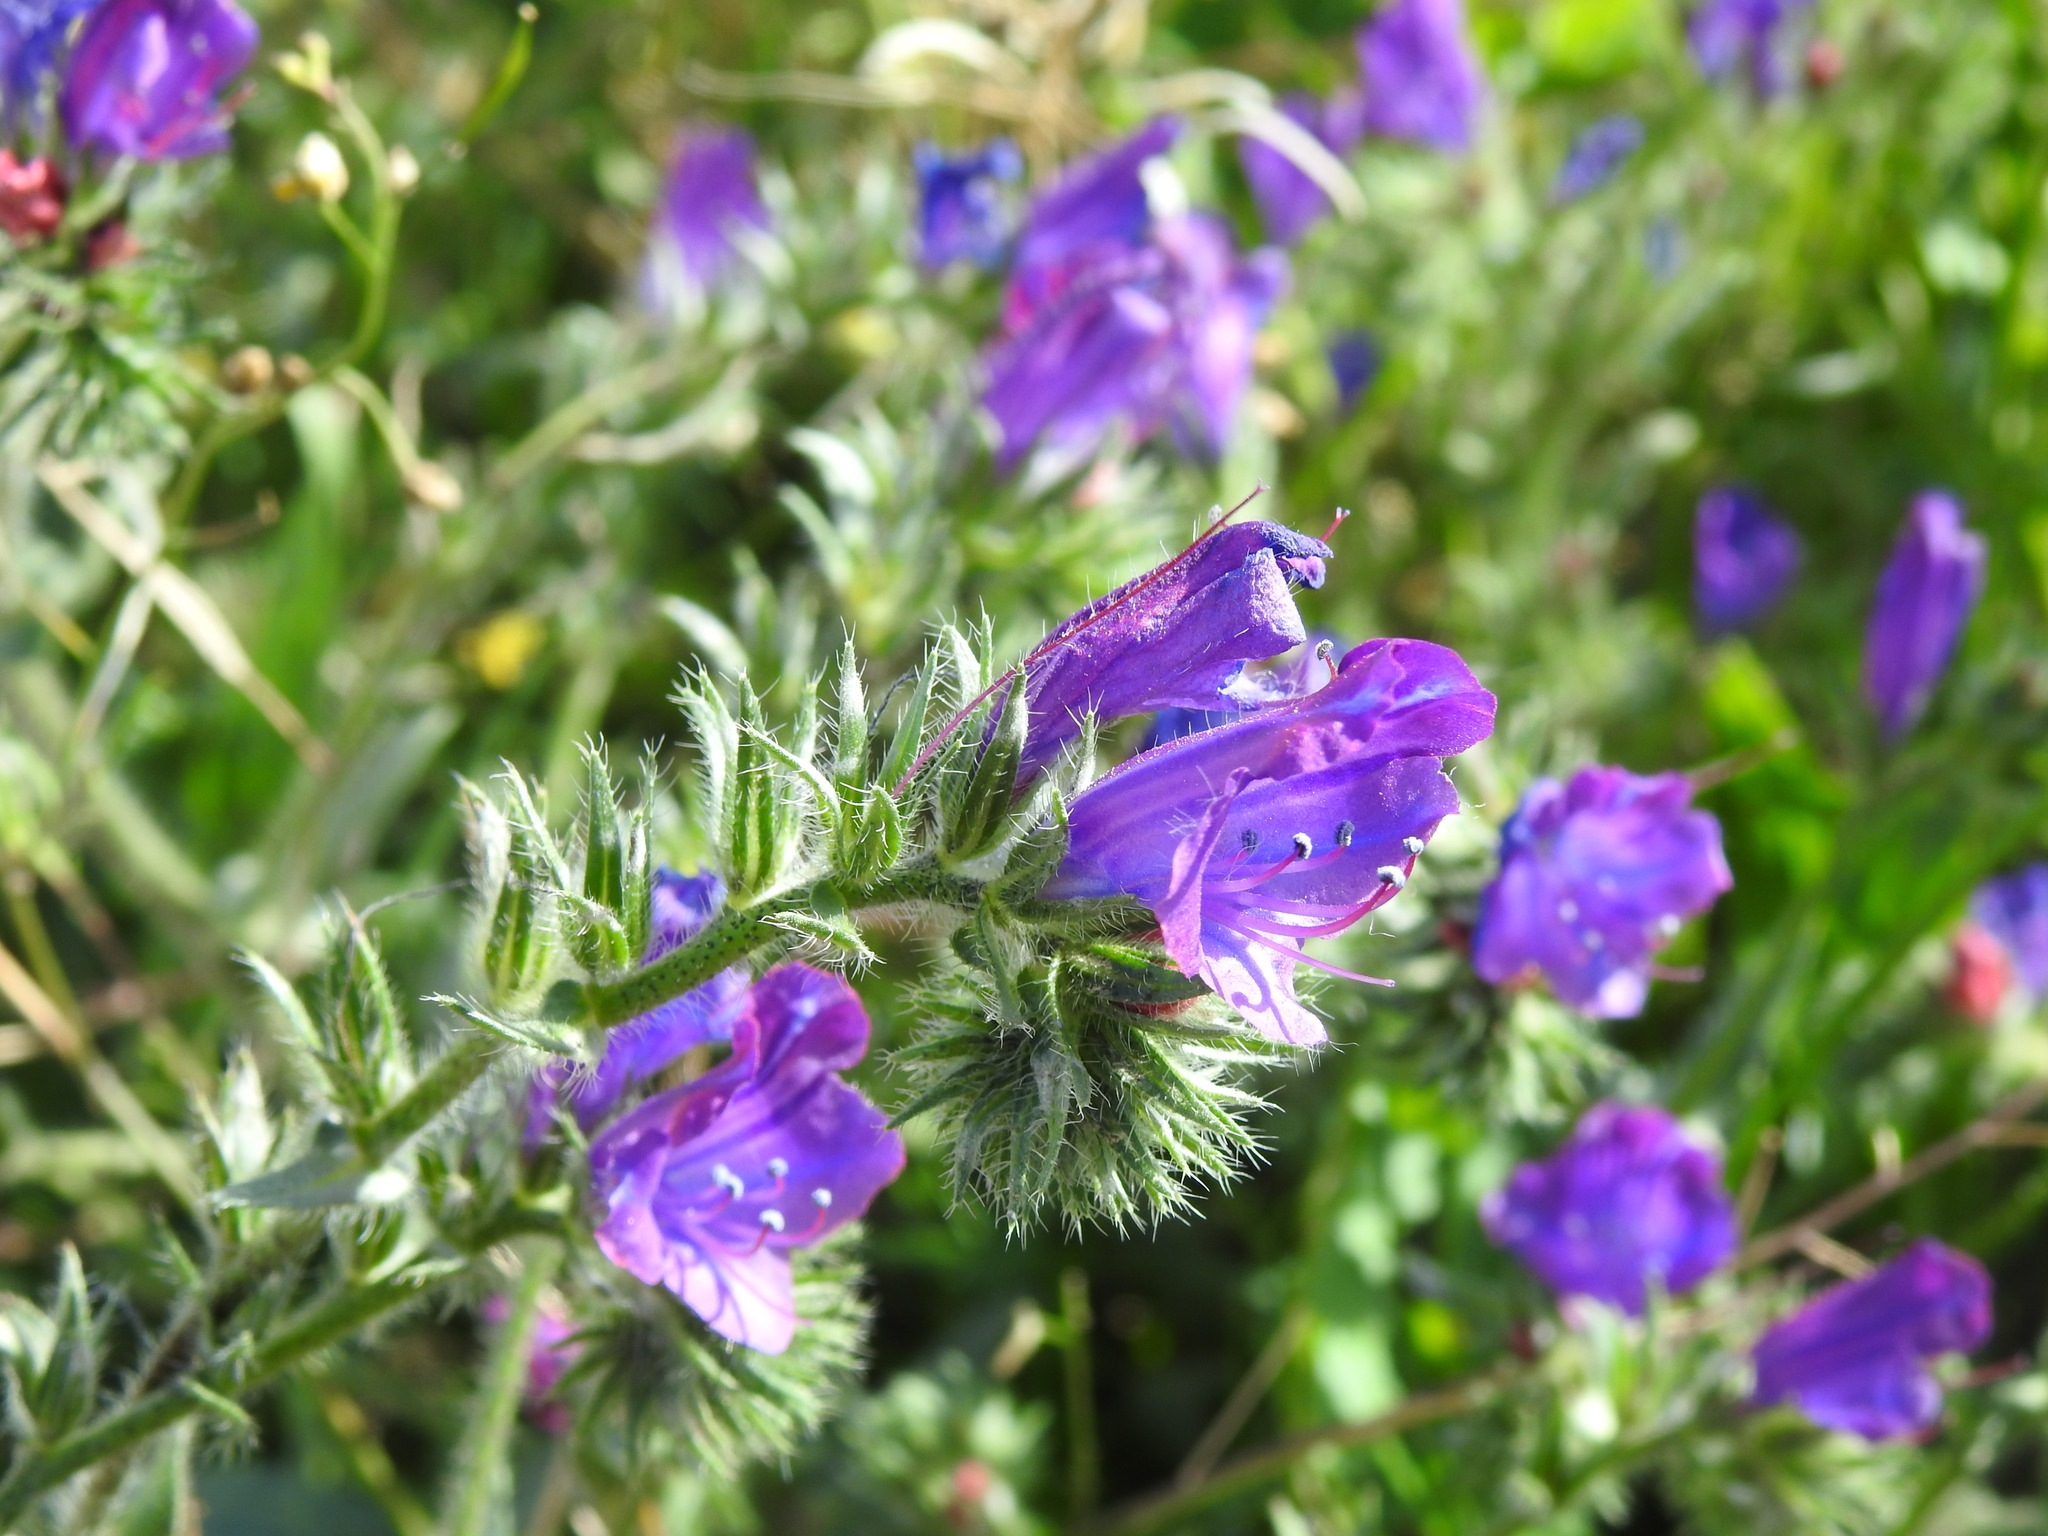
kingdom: Plantae
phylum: Tracheophyta
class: Magnoliopsida
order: Boraginales
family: Boraginaceae
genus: Echium
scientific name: Echium plantagineum
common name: Purple viper's-bugloss
